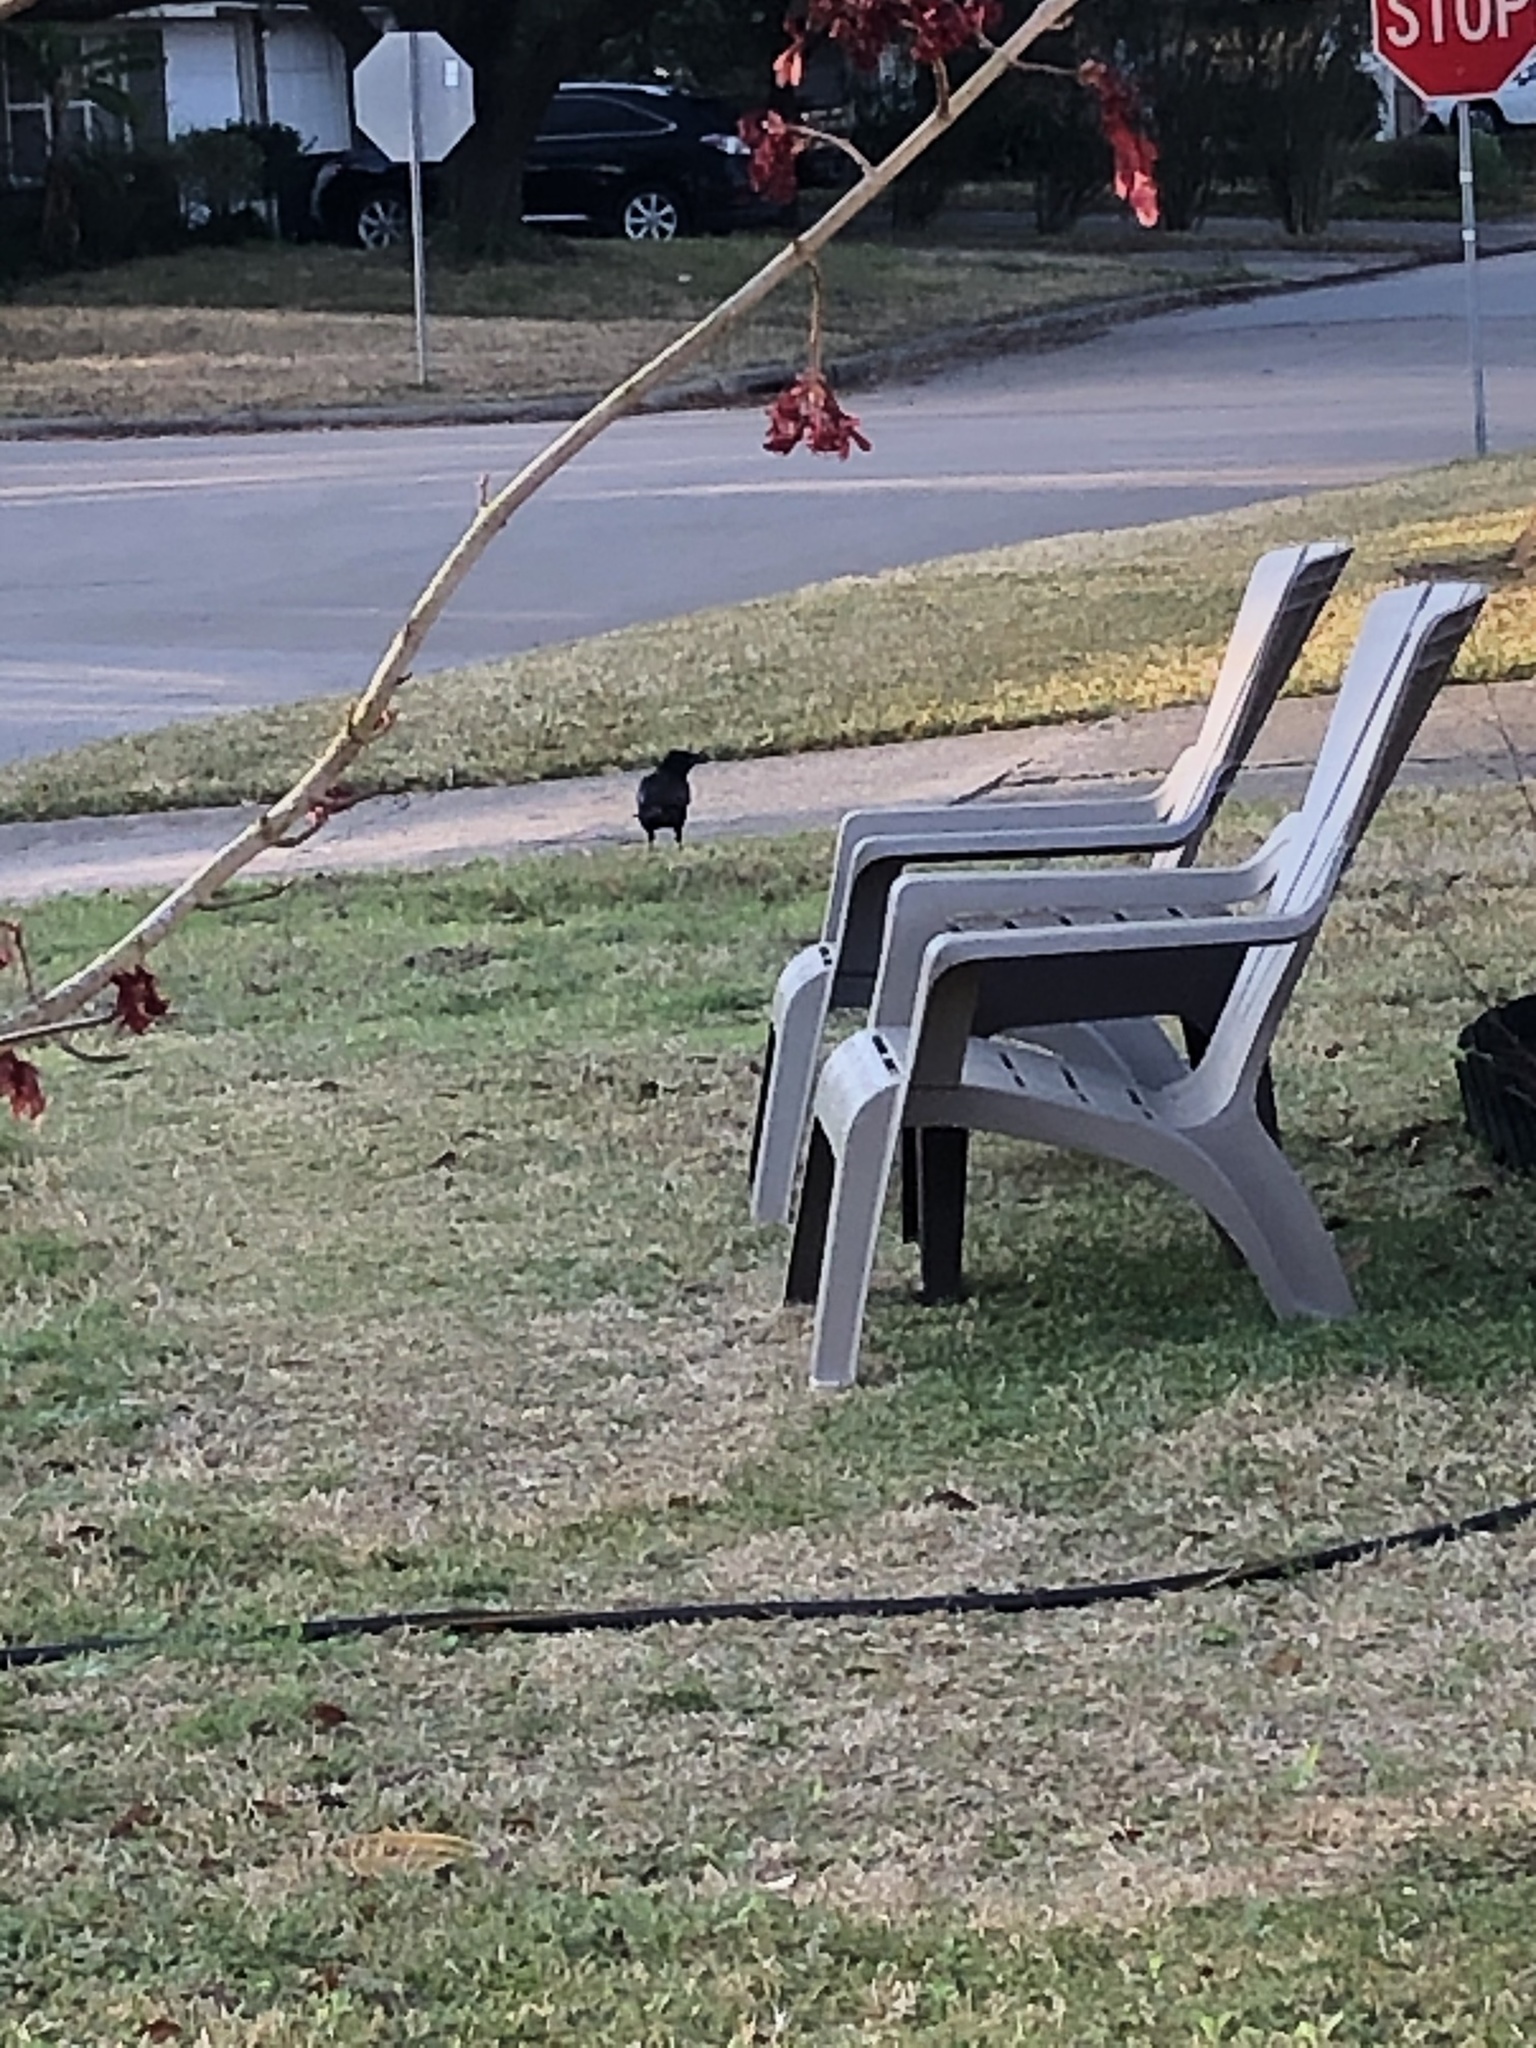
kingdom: Animalia
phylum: Chordata
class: Aves
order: Passeriformes
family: Corvidae
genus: Corvus
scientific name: Corvus brachyrhynchos
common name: American crow
